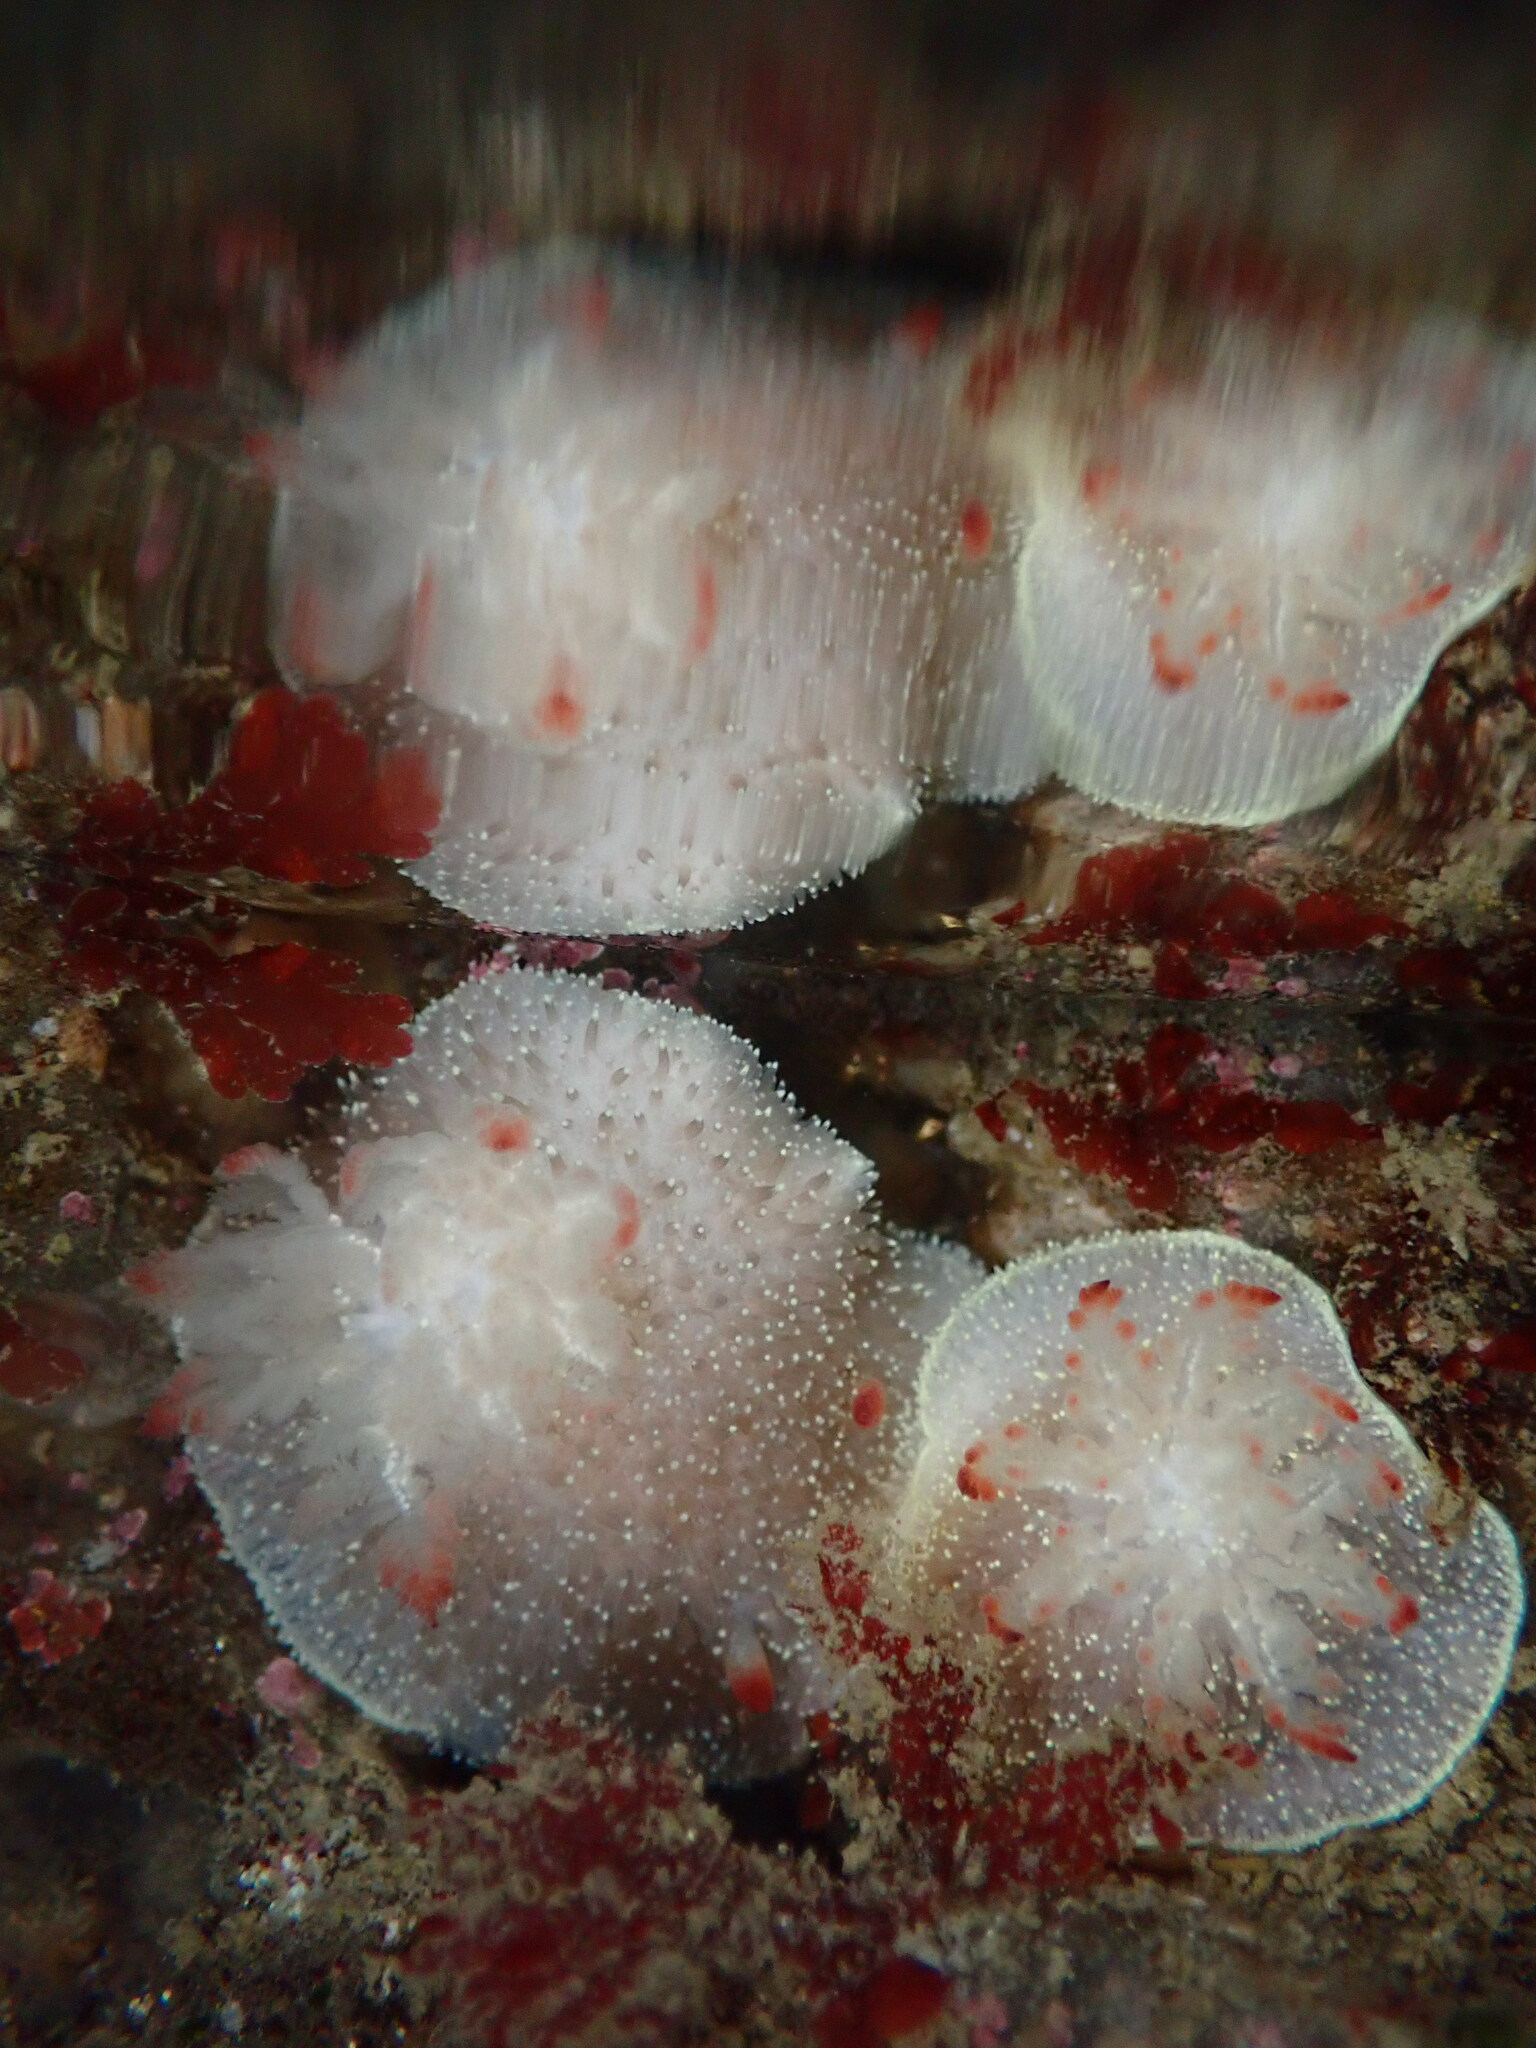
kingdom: Animalia
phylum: Mollusca
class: Gastropoda
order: Nudibranchia
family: Onchidorididae
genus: Acanthodoris
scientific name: Acanthodoris nanaimoensis
